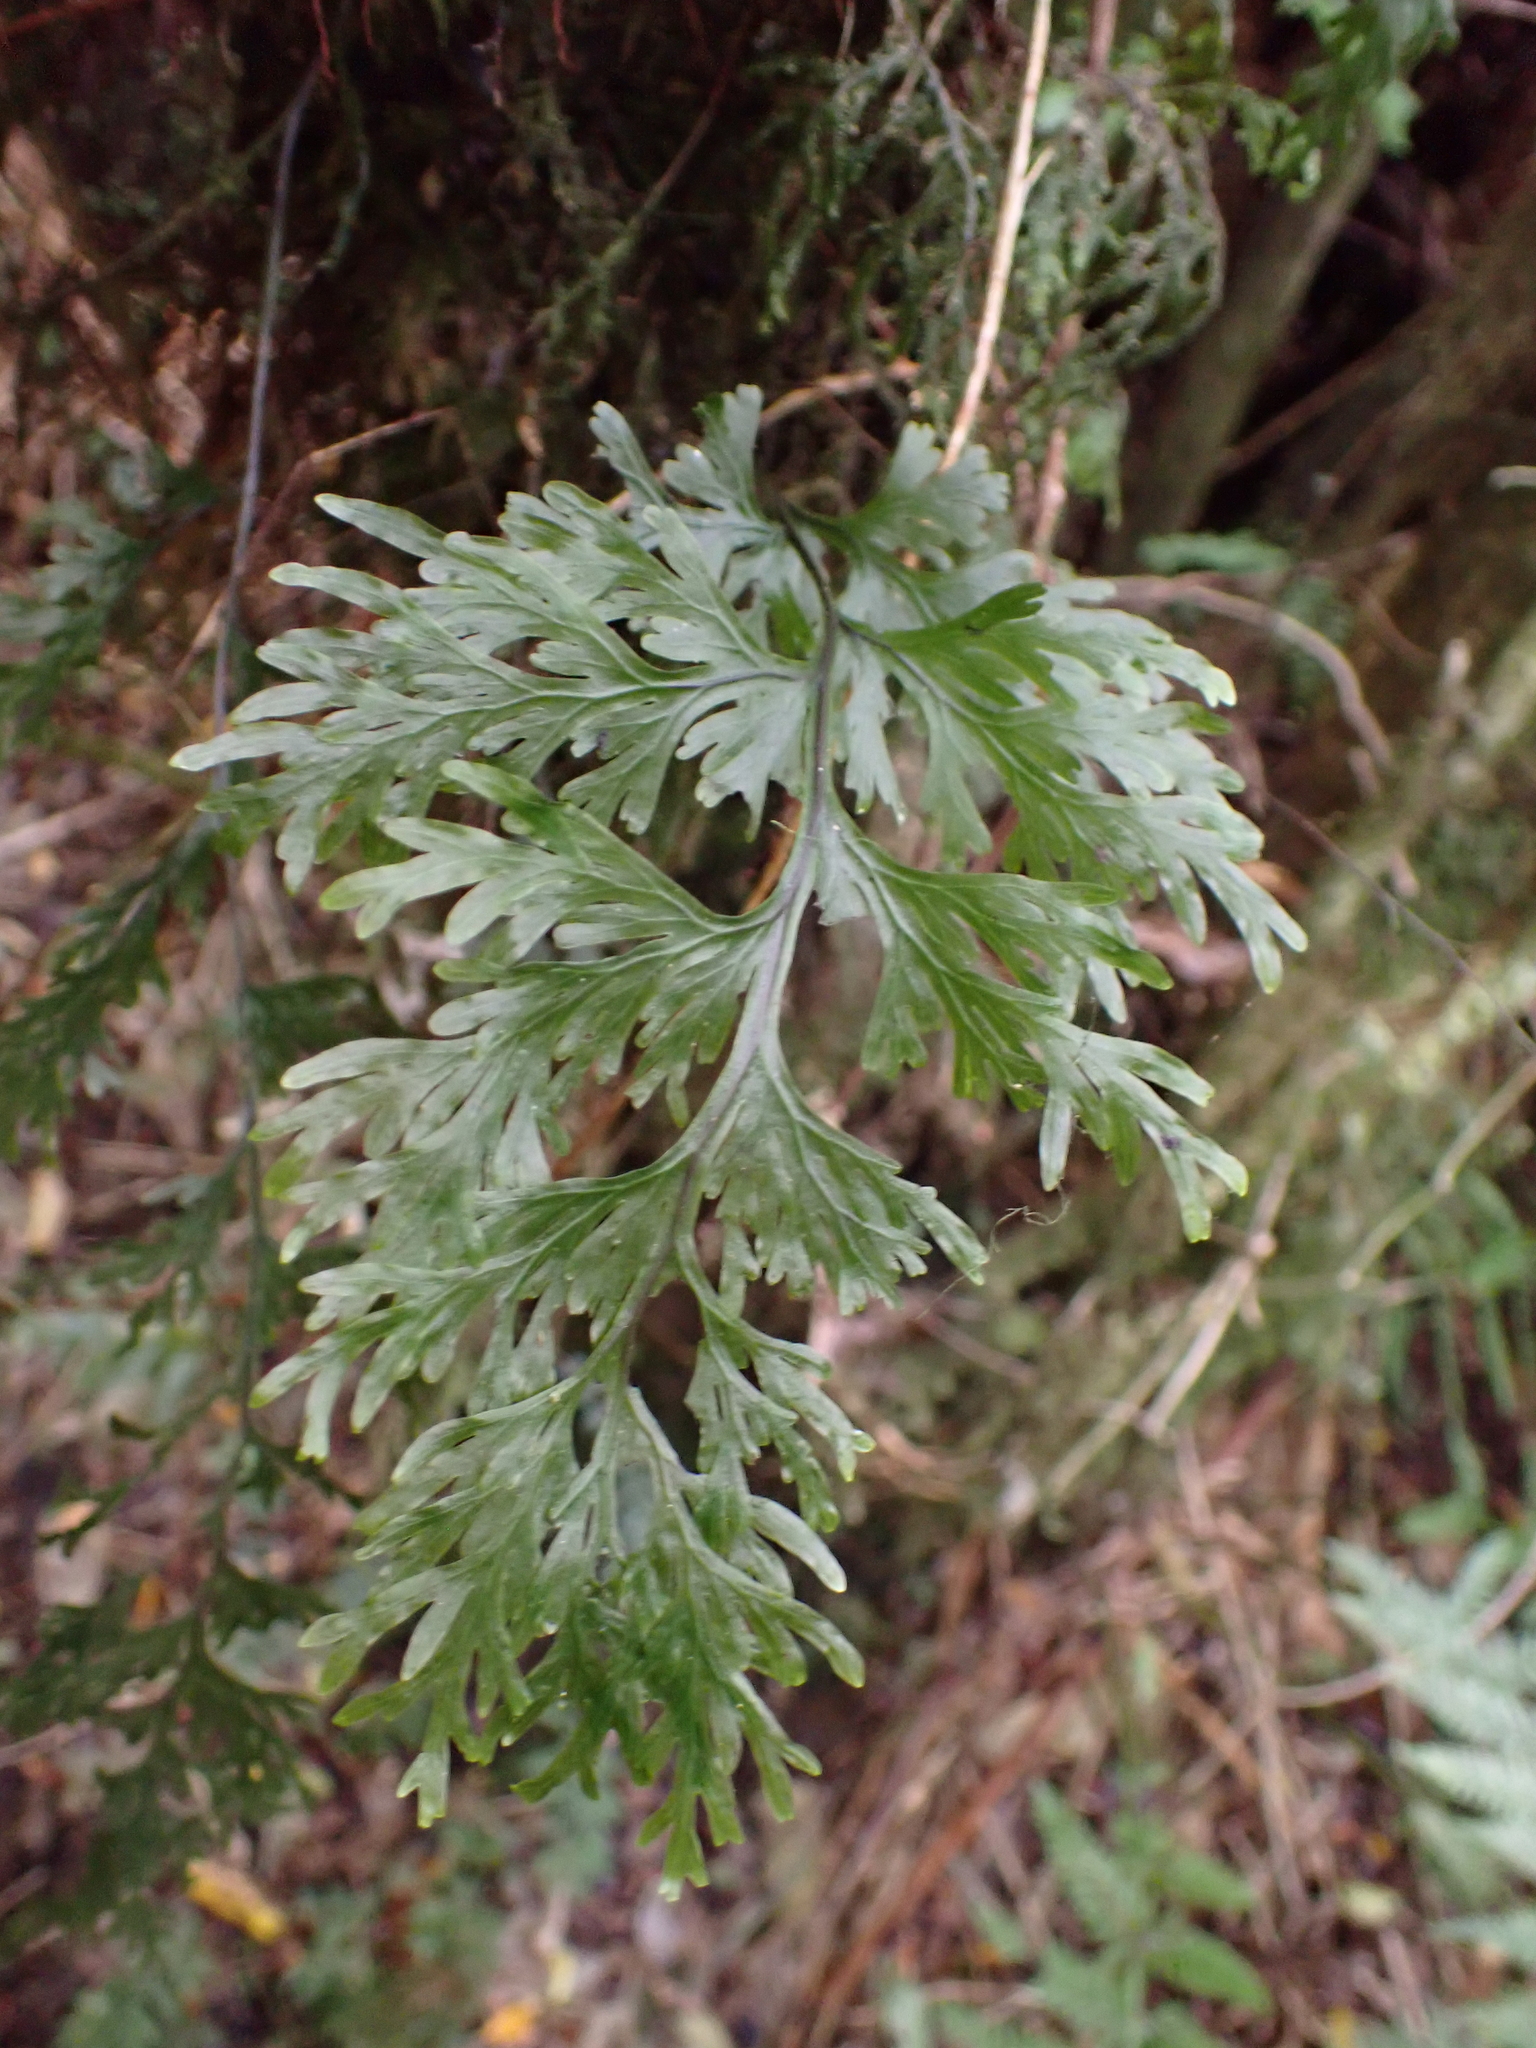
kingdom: Plantae
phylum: Tracheophyta
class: Polypodiopsida
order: Hymenophyllales
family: Hymenophyllaceae
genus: Hymenophyllum
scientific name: Hymenophyllum dilatatum
